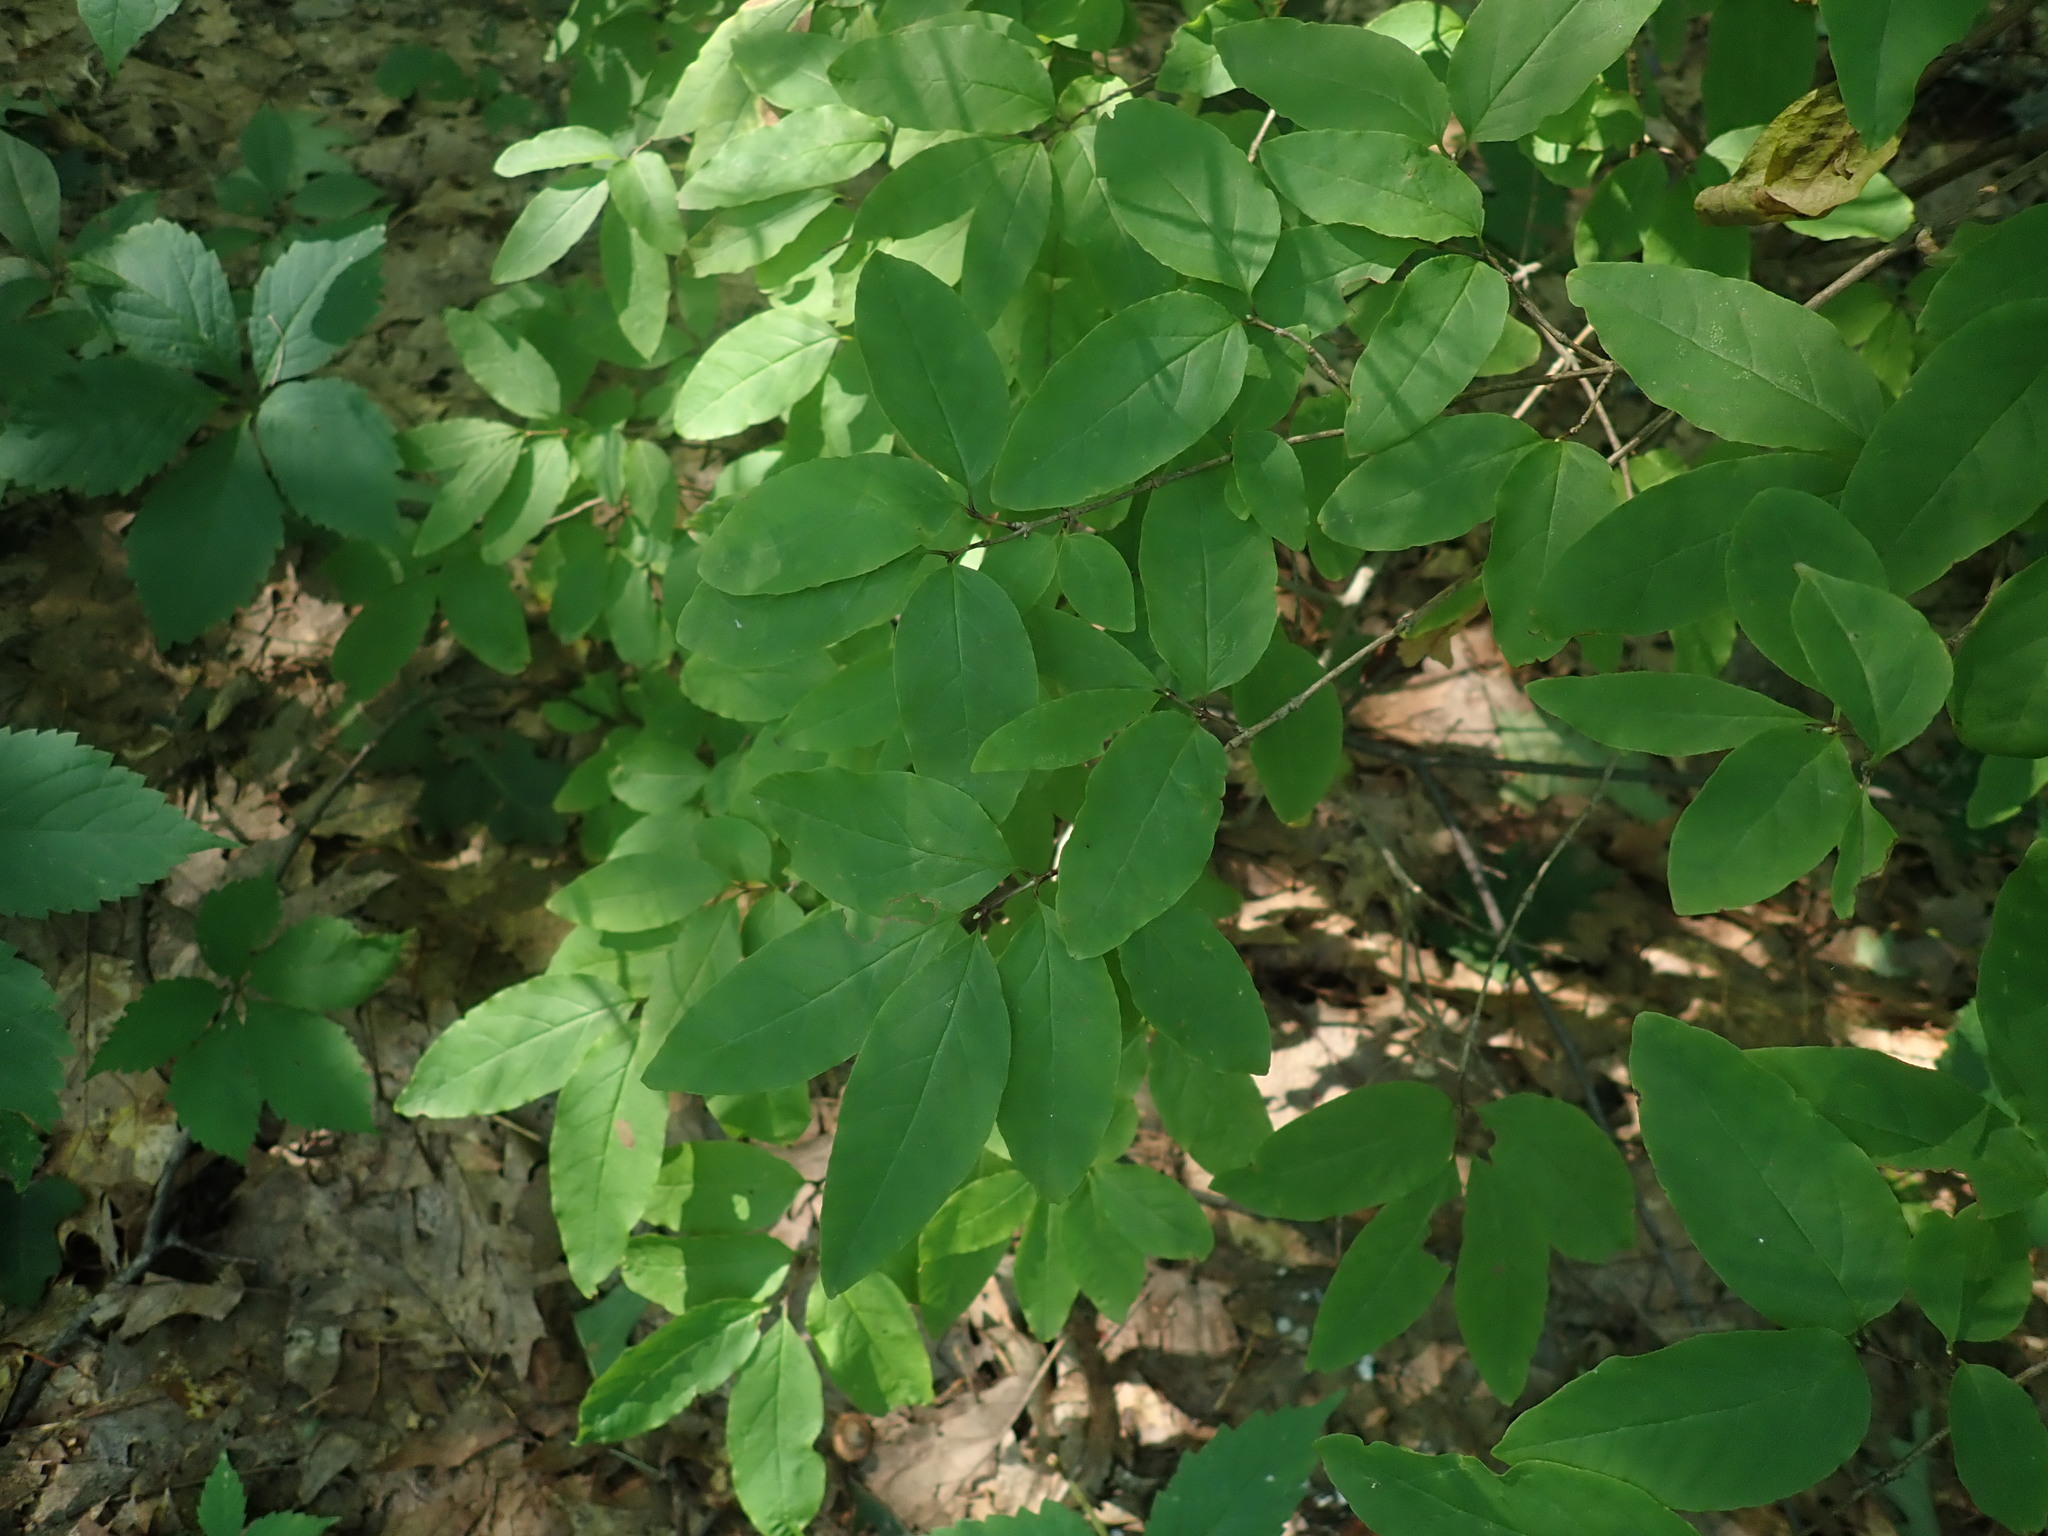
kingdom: Plantae
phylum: Tracheophyta
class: Magnoliopsida
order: Dipsacales
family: Caprifoliaceae
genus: Lonicera
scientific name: Lonicera canadensis
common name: American fly-honeysuckle
